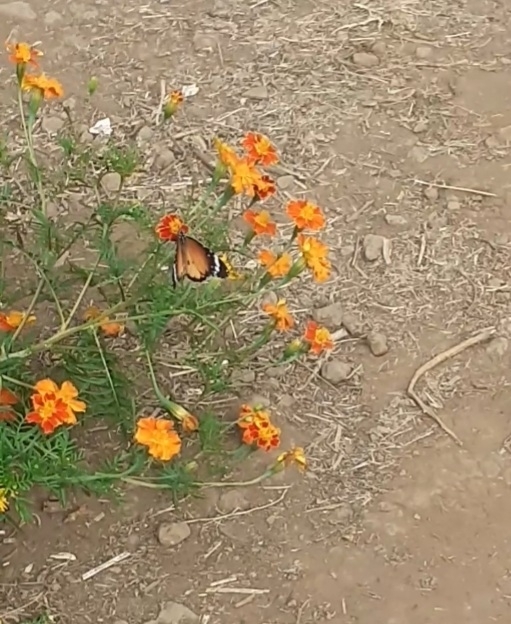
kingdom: Animalia
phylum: Arthropoda
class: Insecta
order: Lepidoptera
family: Nymphalidae
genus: Danaus
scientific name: Danaus chrysippus
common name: Plain tiger
